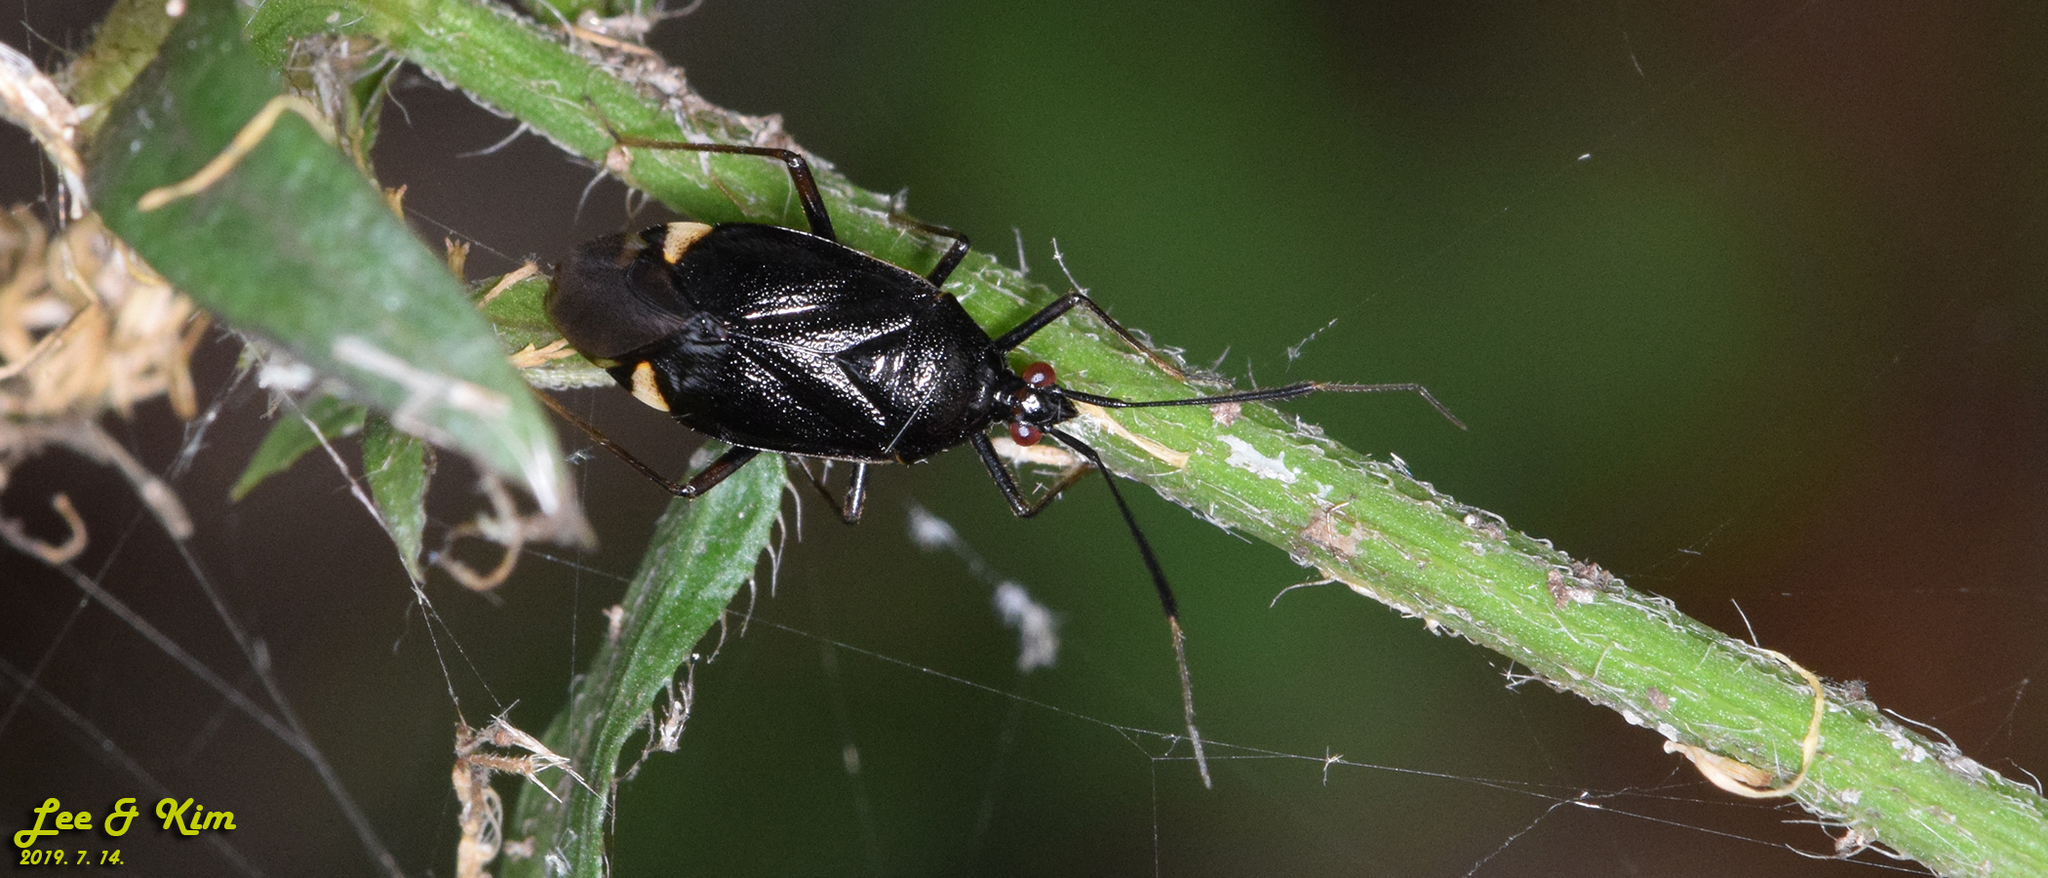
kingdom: Animalia
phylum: Arthropoda
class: Insecta
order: Hemiptera
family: Miridae
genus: Deraeocoris
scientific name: Deraeocoris ater
